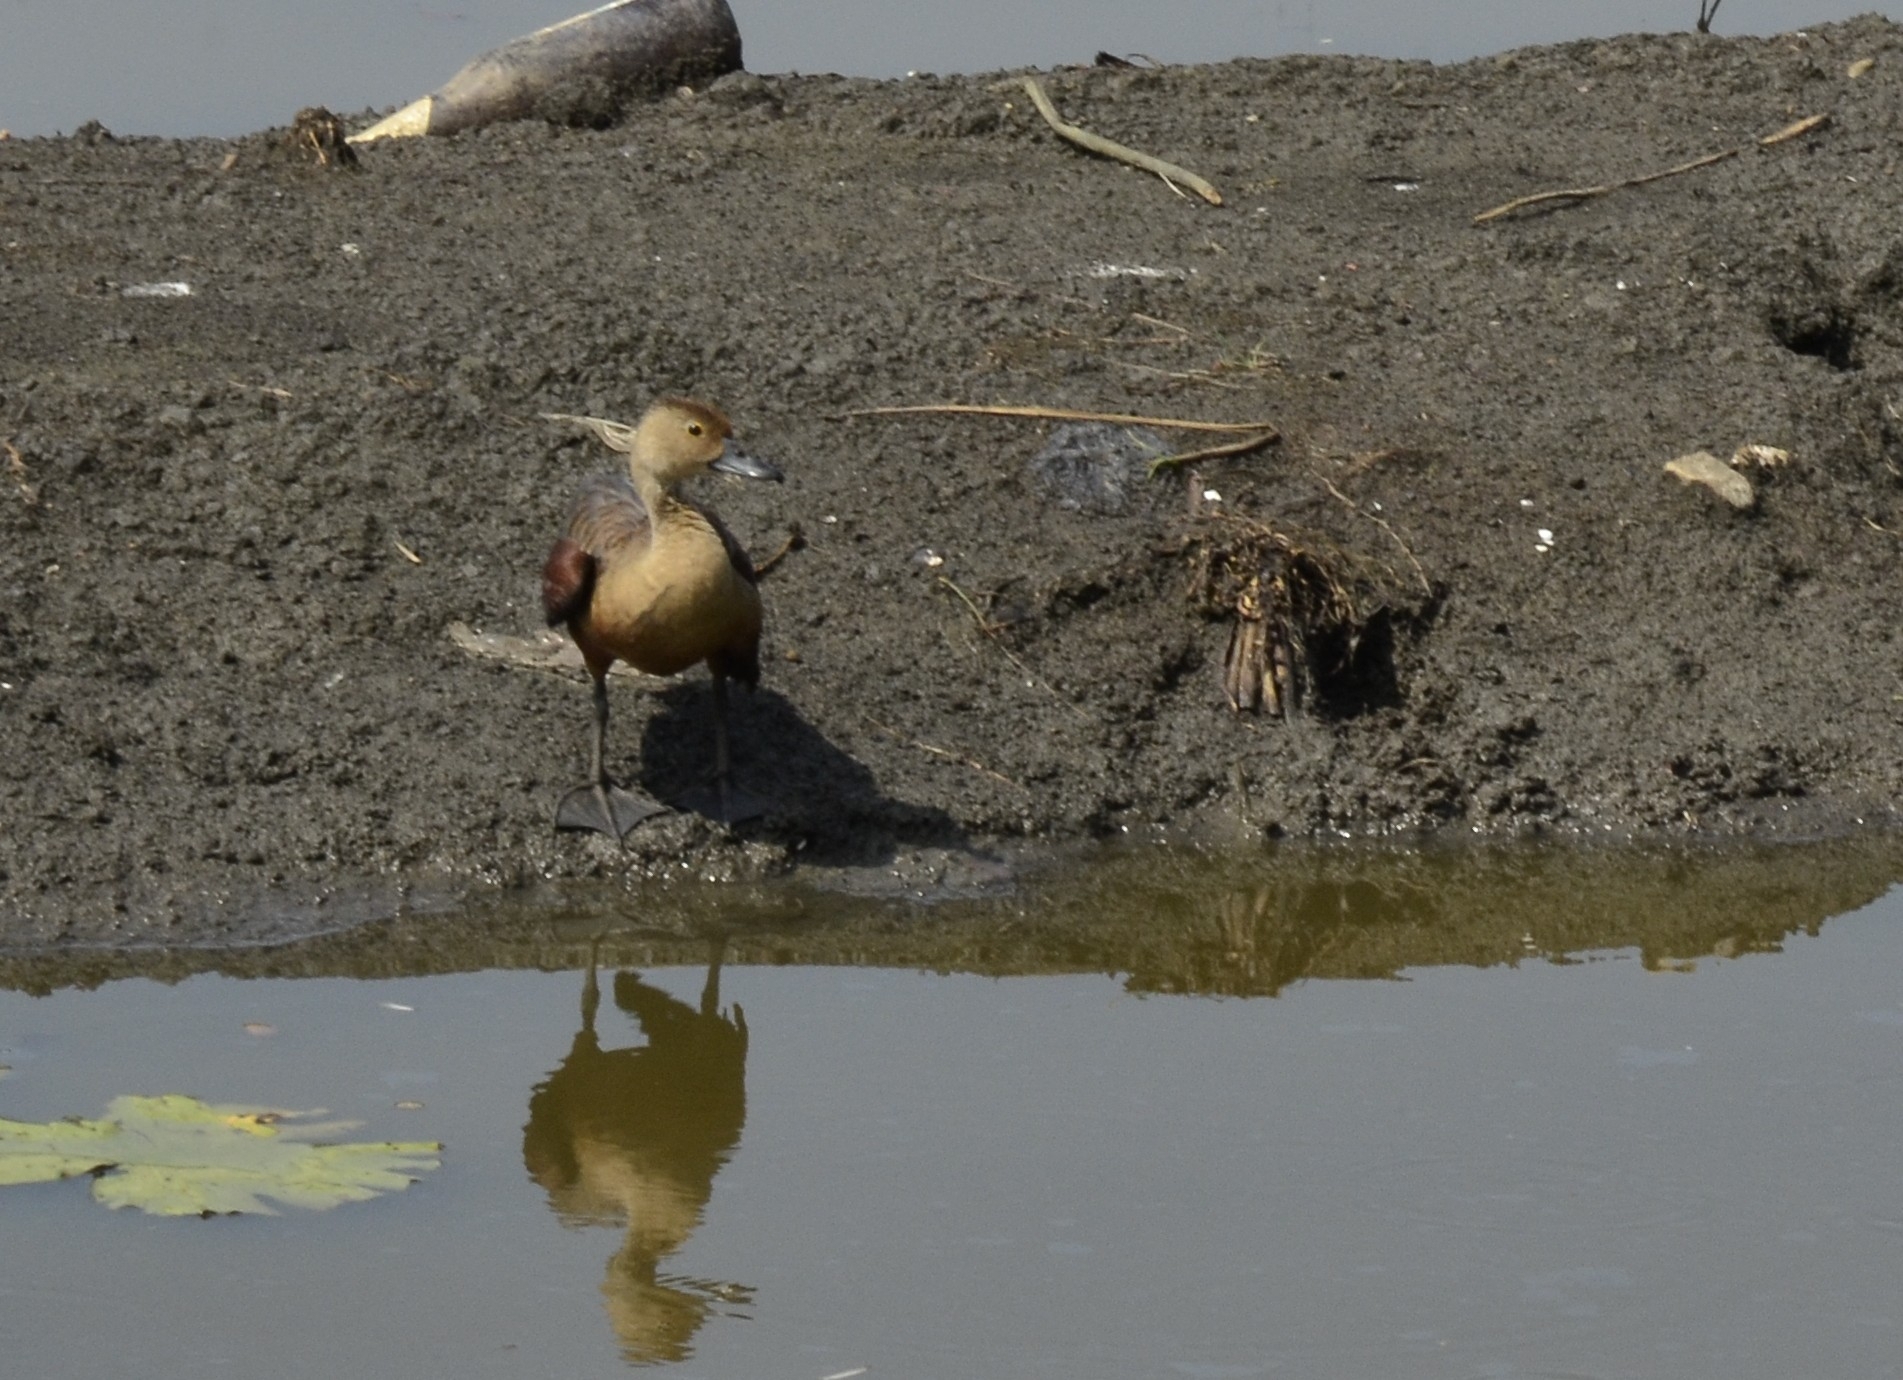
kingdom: Animalia
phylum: Chordata
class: Aves
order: Anseriformes
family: Anatidae
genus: Dendrocygna
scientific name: Dendrocygna javanica
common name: Lesser whistling-duck
